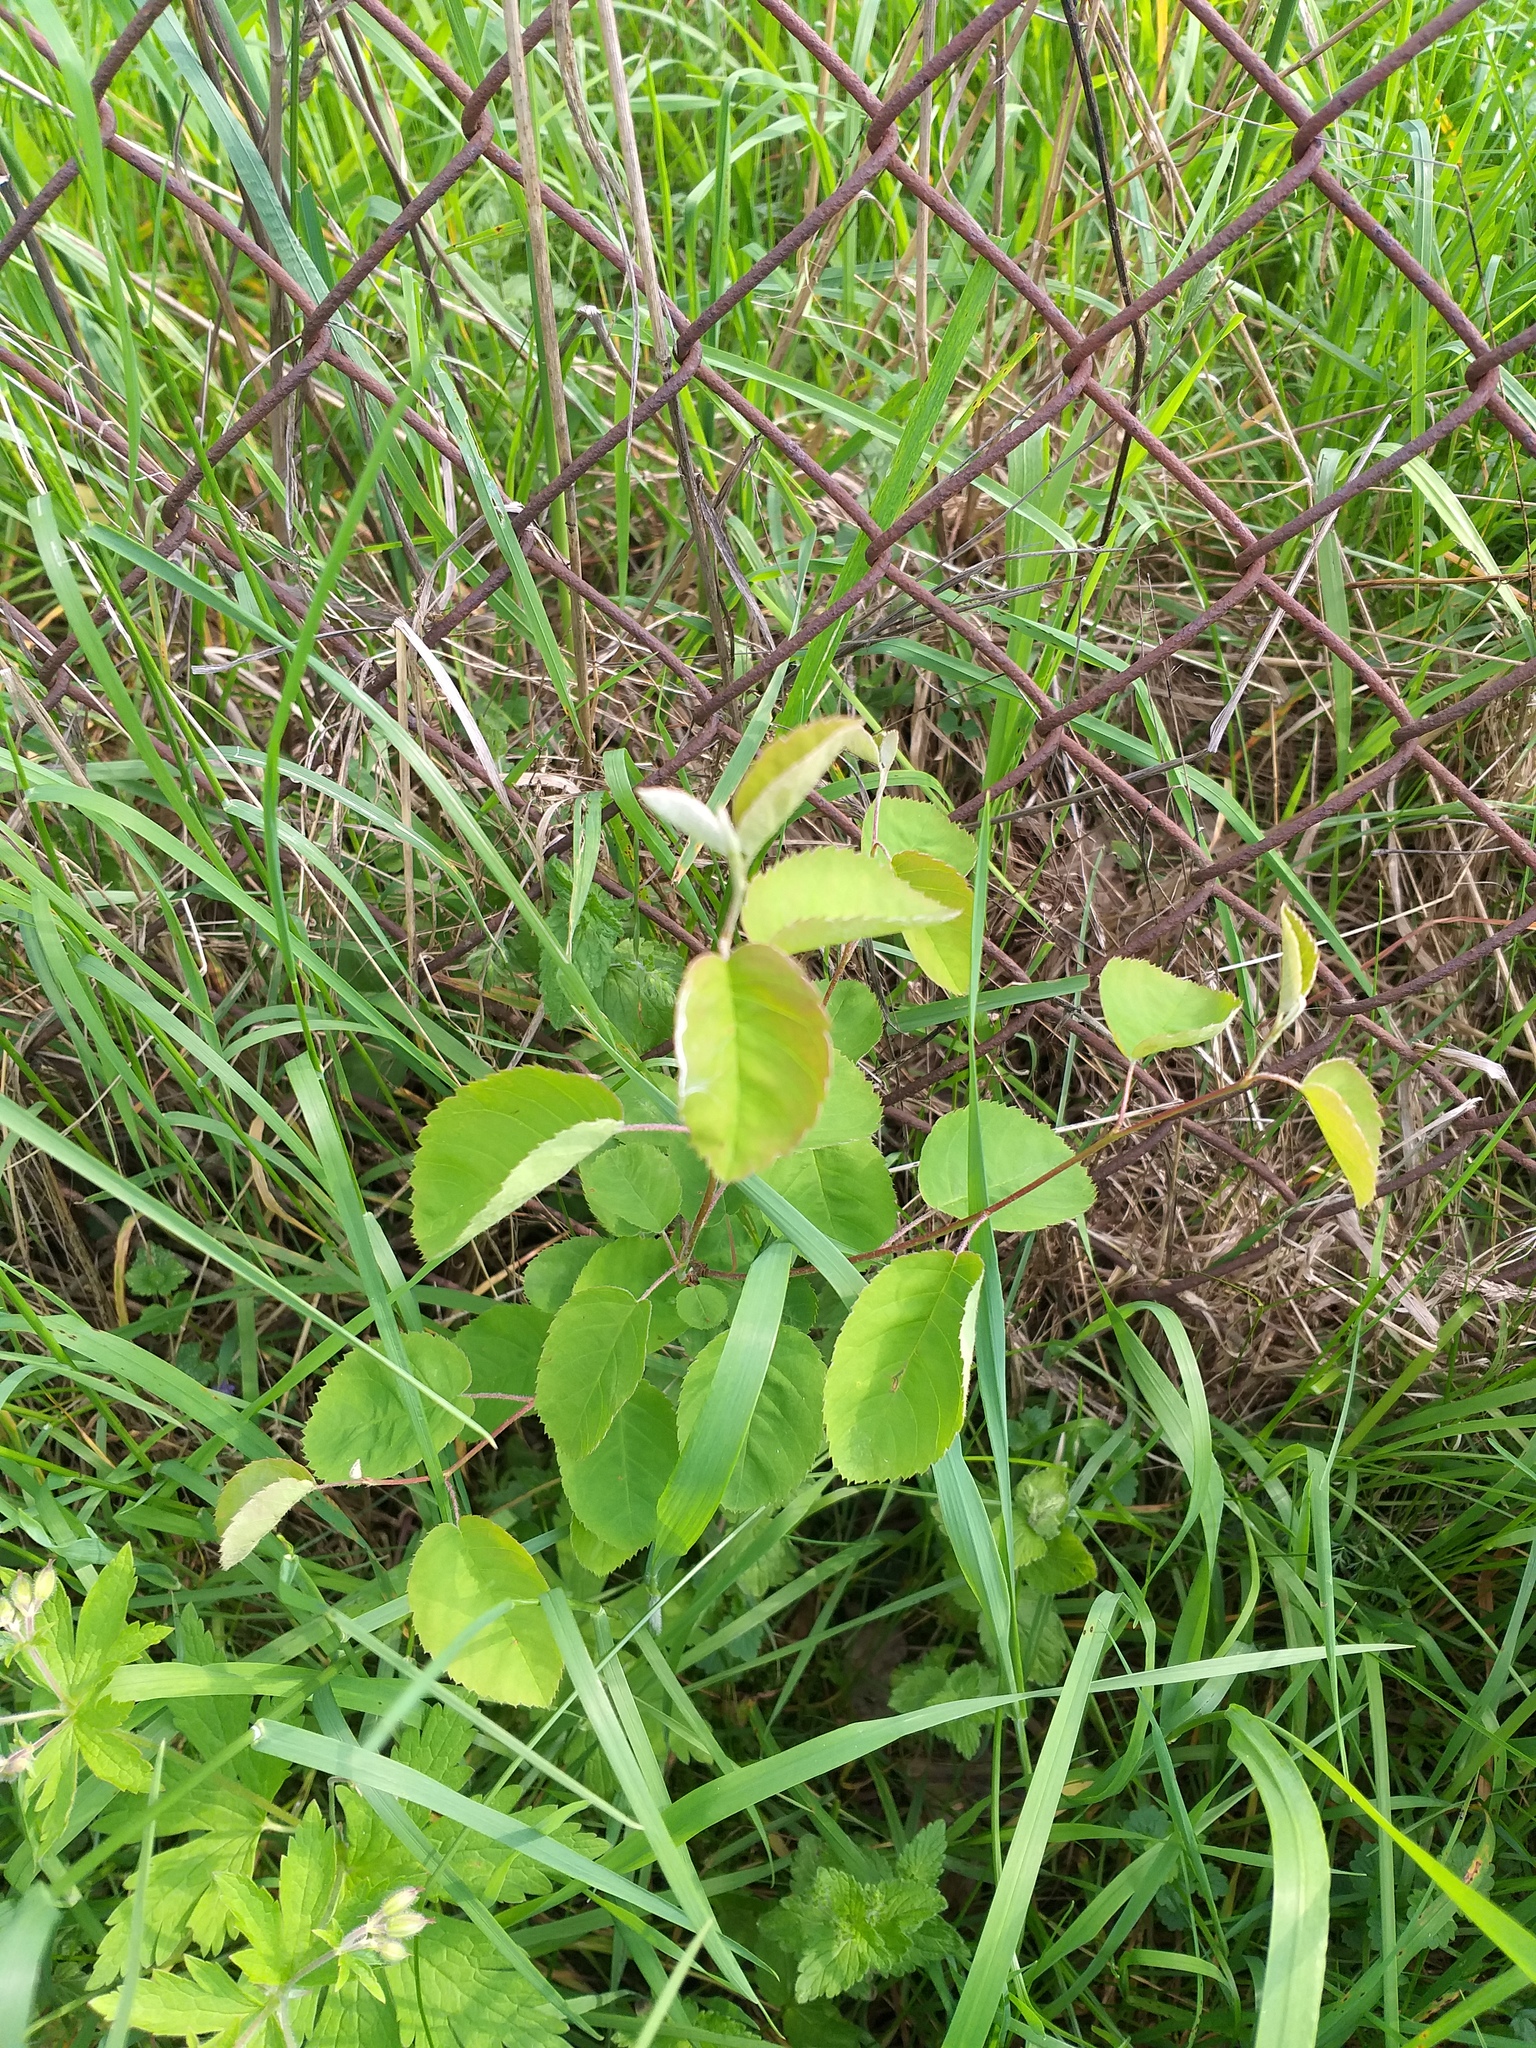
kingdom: Plantae
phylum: Tracheophyta
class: Magnoliopsida
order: Rosales
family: Rosaceae
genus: Amelanchier
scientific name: Amelanchier
